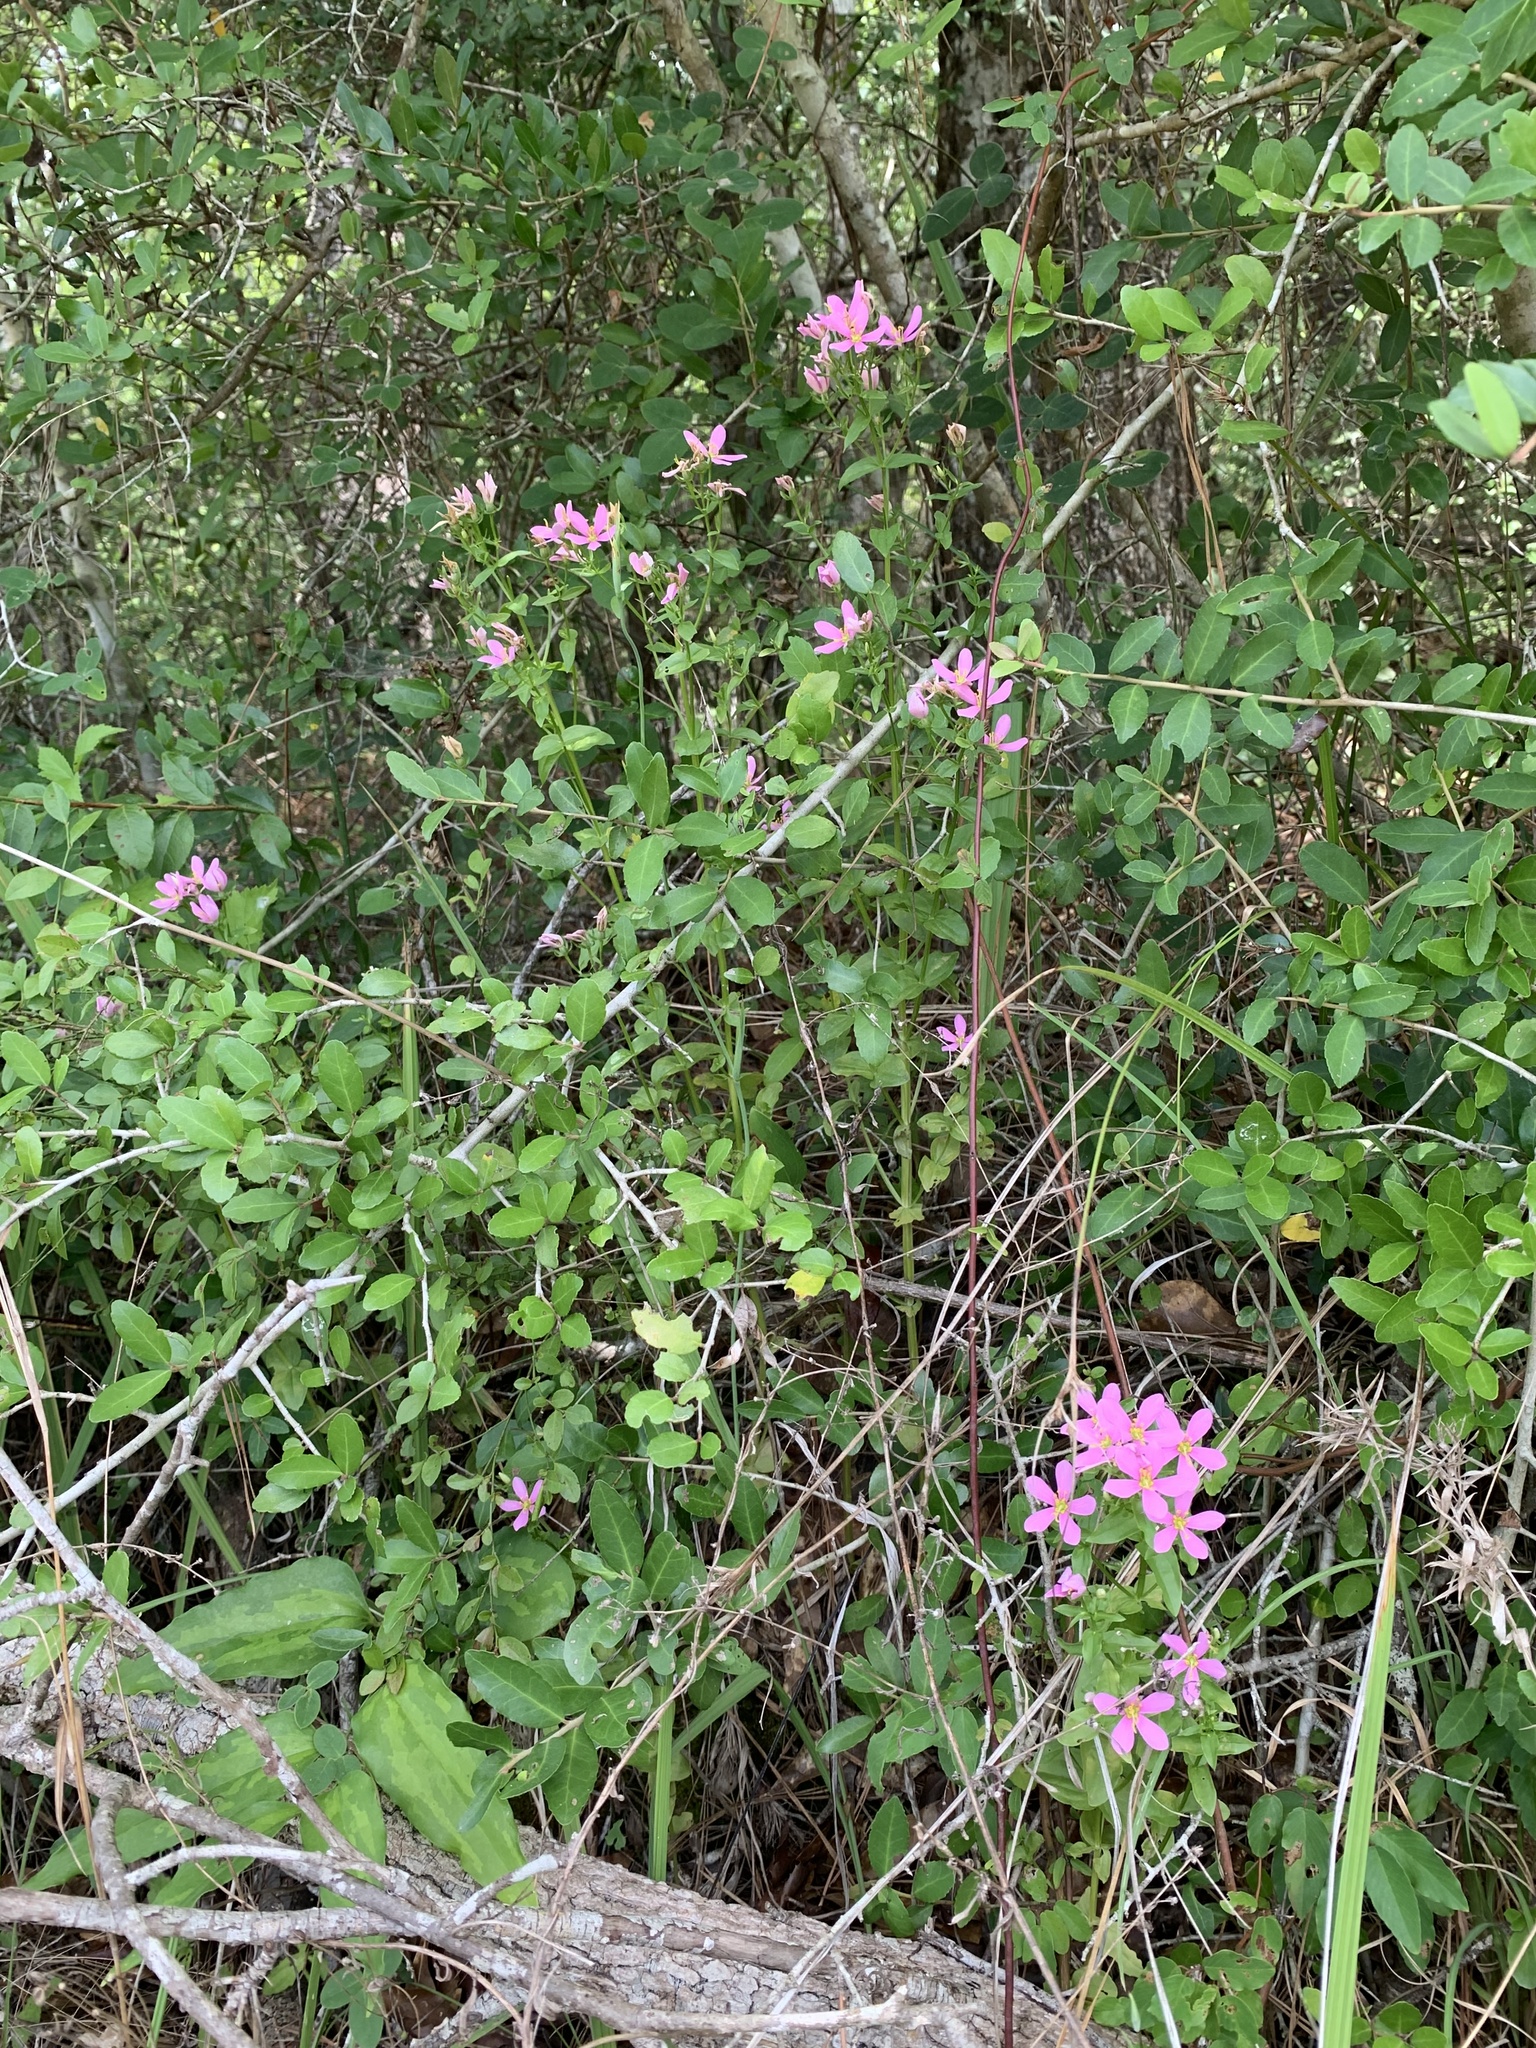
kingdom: Plantae
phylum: Tracheophyta
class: Magnoliopsida
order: Gentianales
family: Gentianaceae
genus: Sabatia
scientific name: Sabatia angularis
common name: Rose-pink
